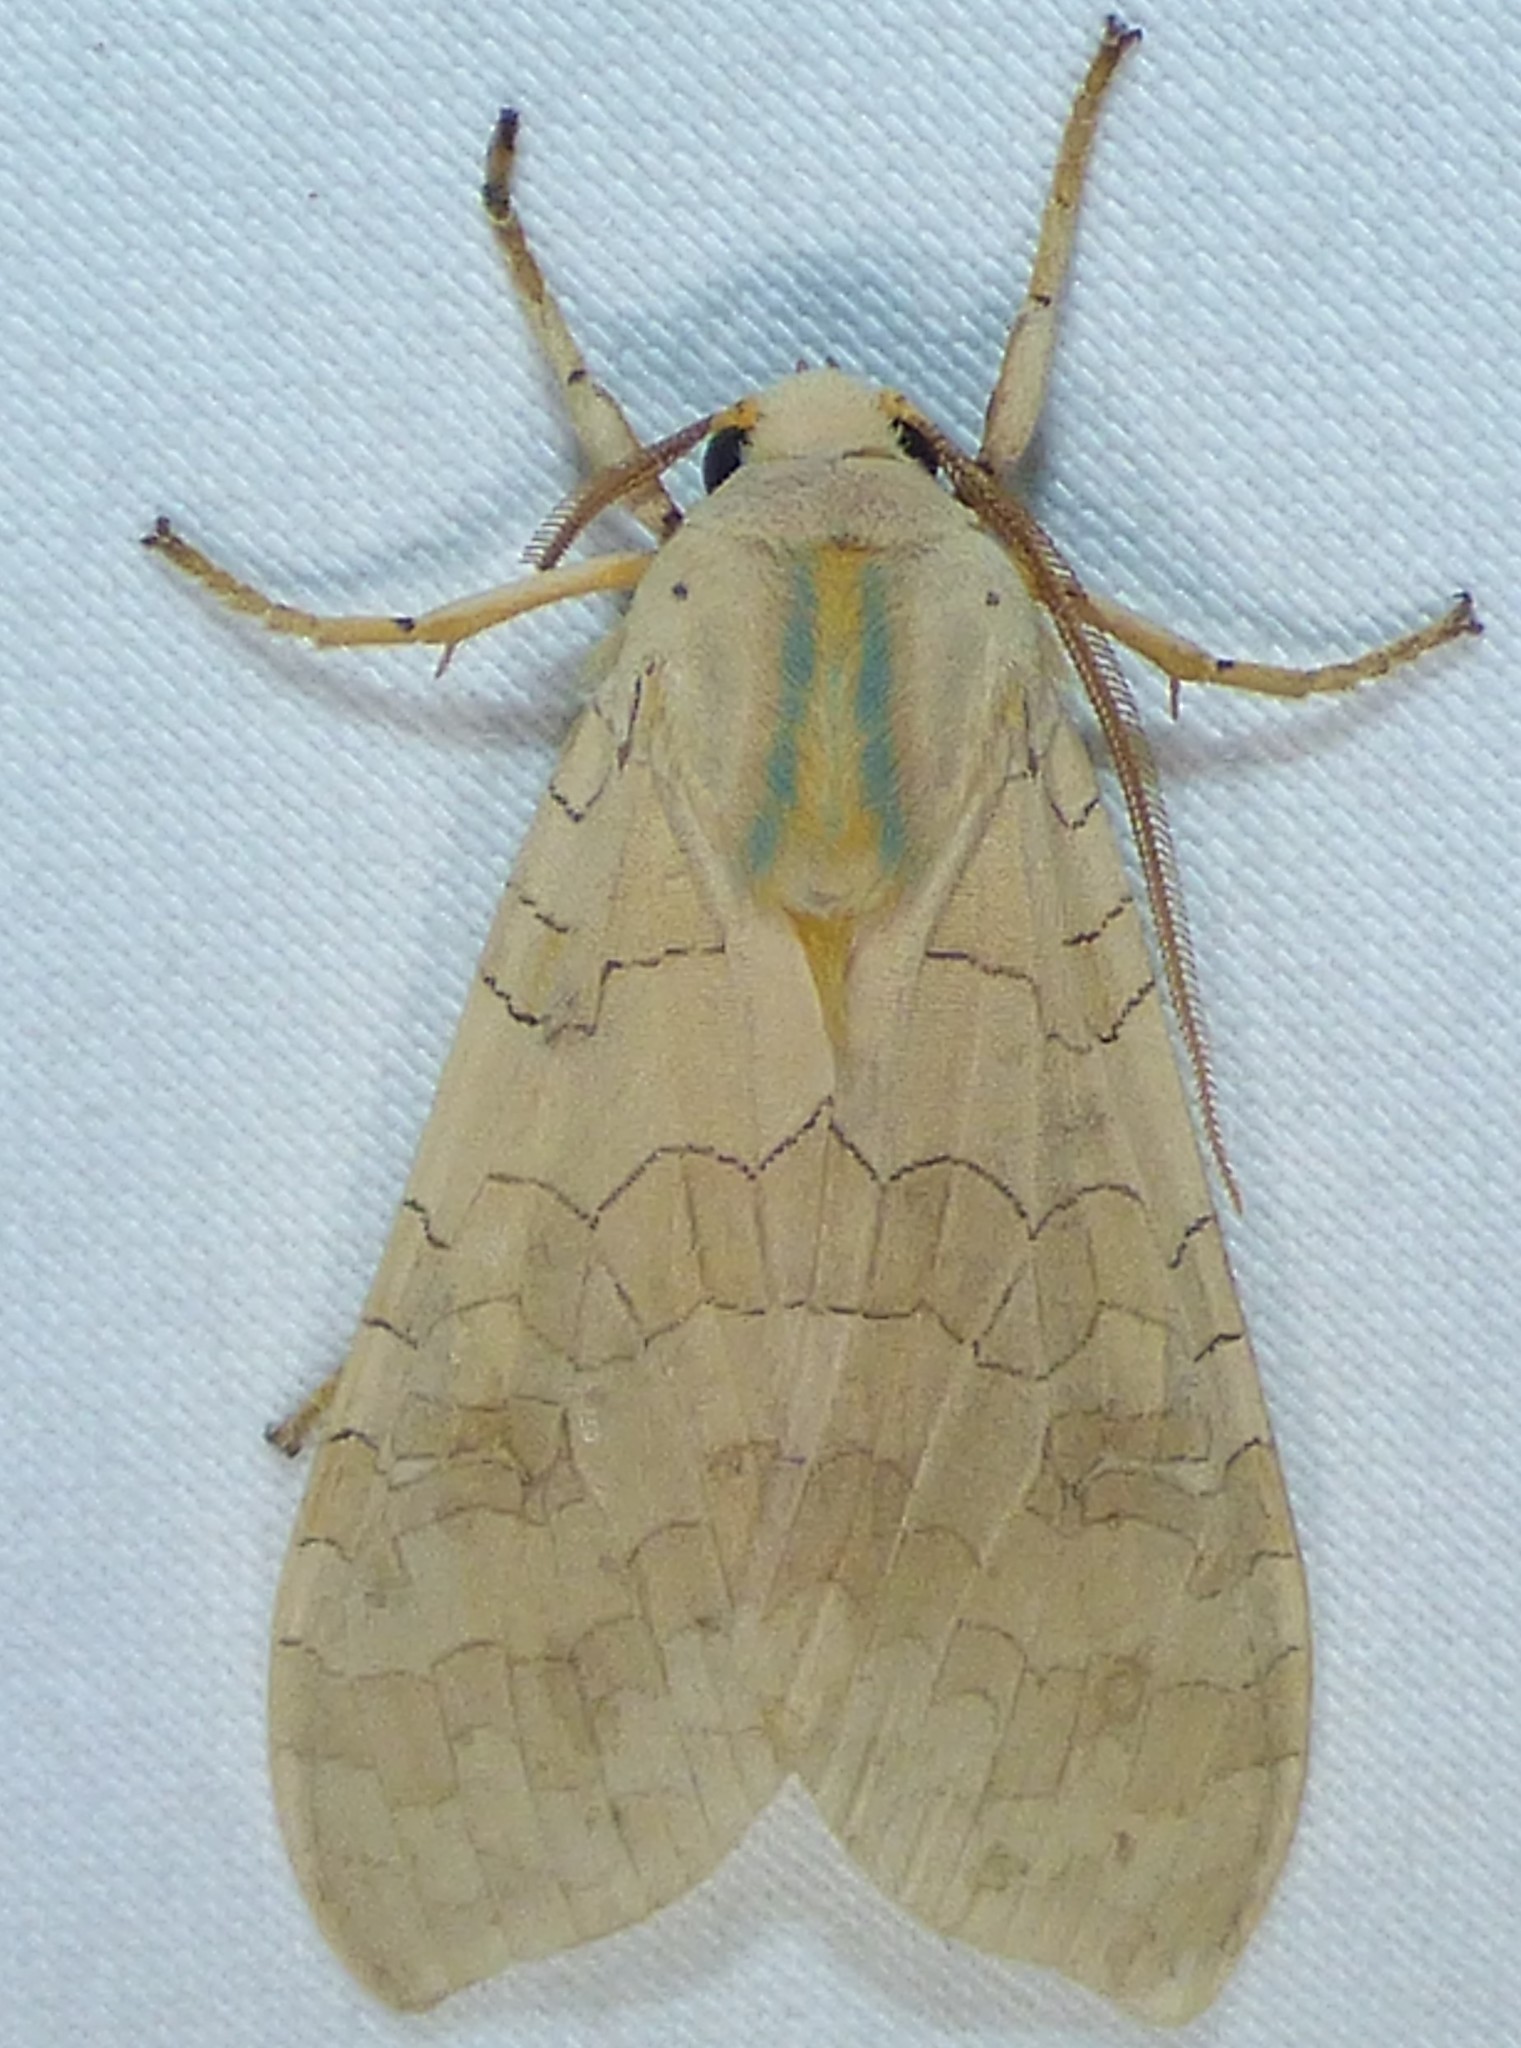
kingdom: Animalia
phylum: Arthropoda
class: Insecta
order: Lepidoptera
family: Erebidae
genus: Halysidota
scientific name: Halysidota
